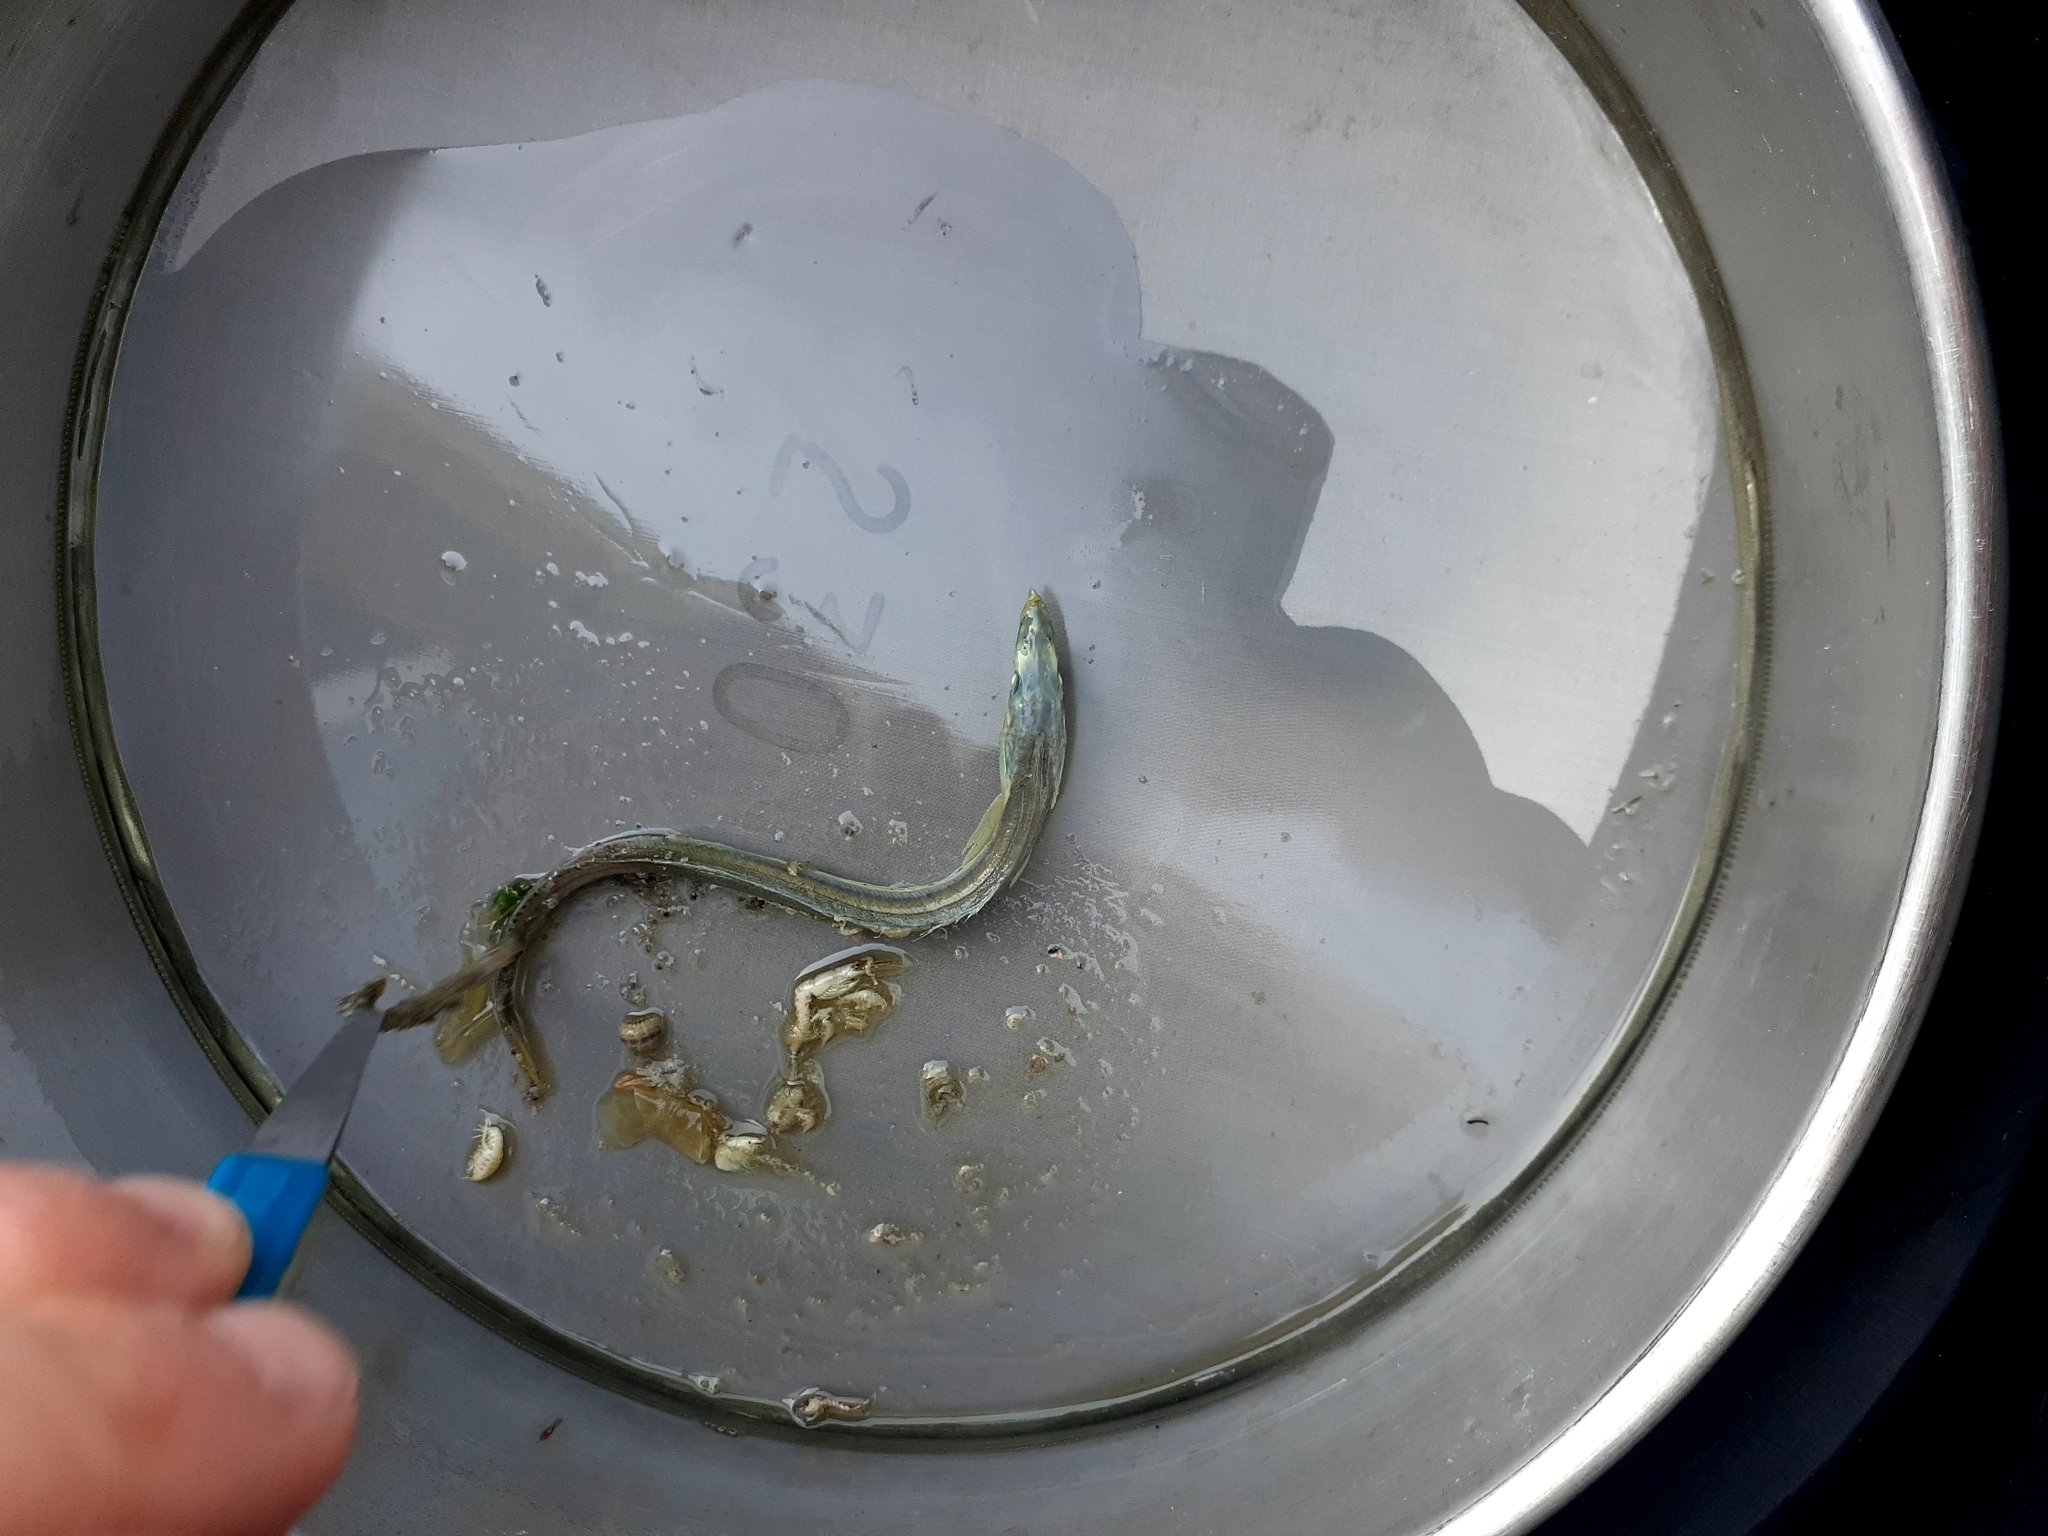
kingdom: Animalia
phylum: Chordata
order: Perciformes
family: Ammodytidae
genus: Ammodytes
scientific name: Ammodytes
